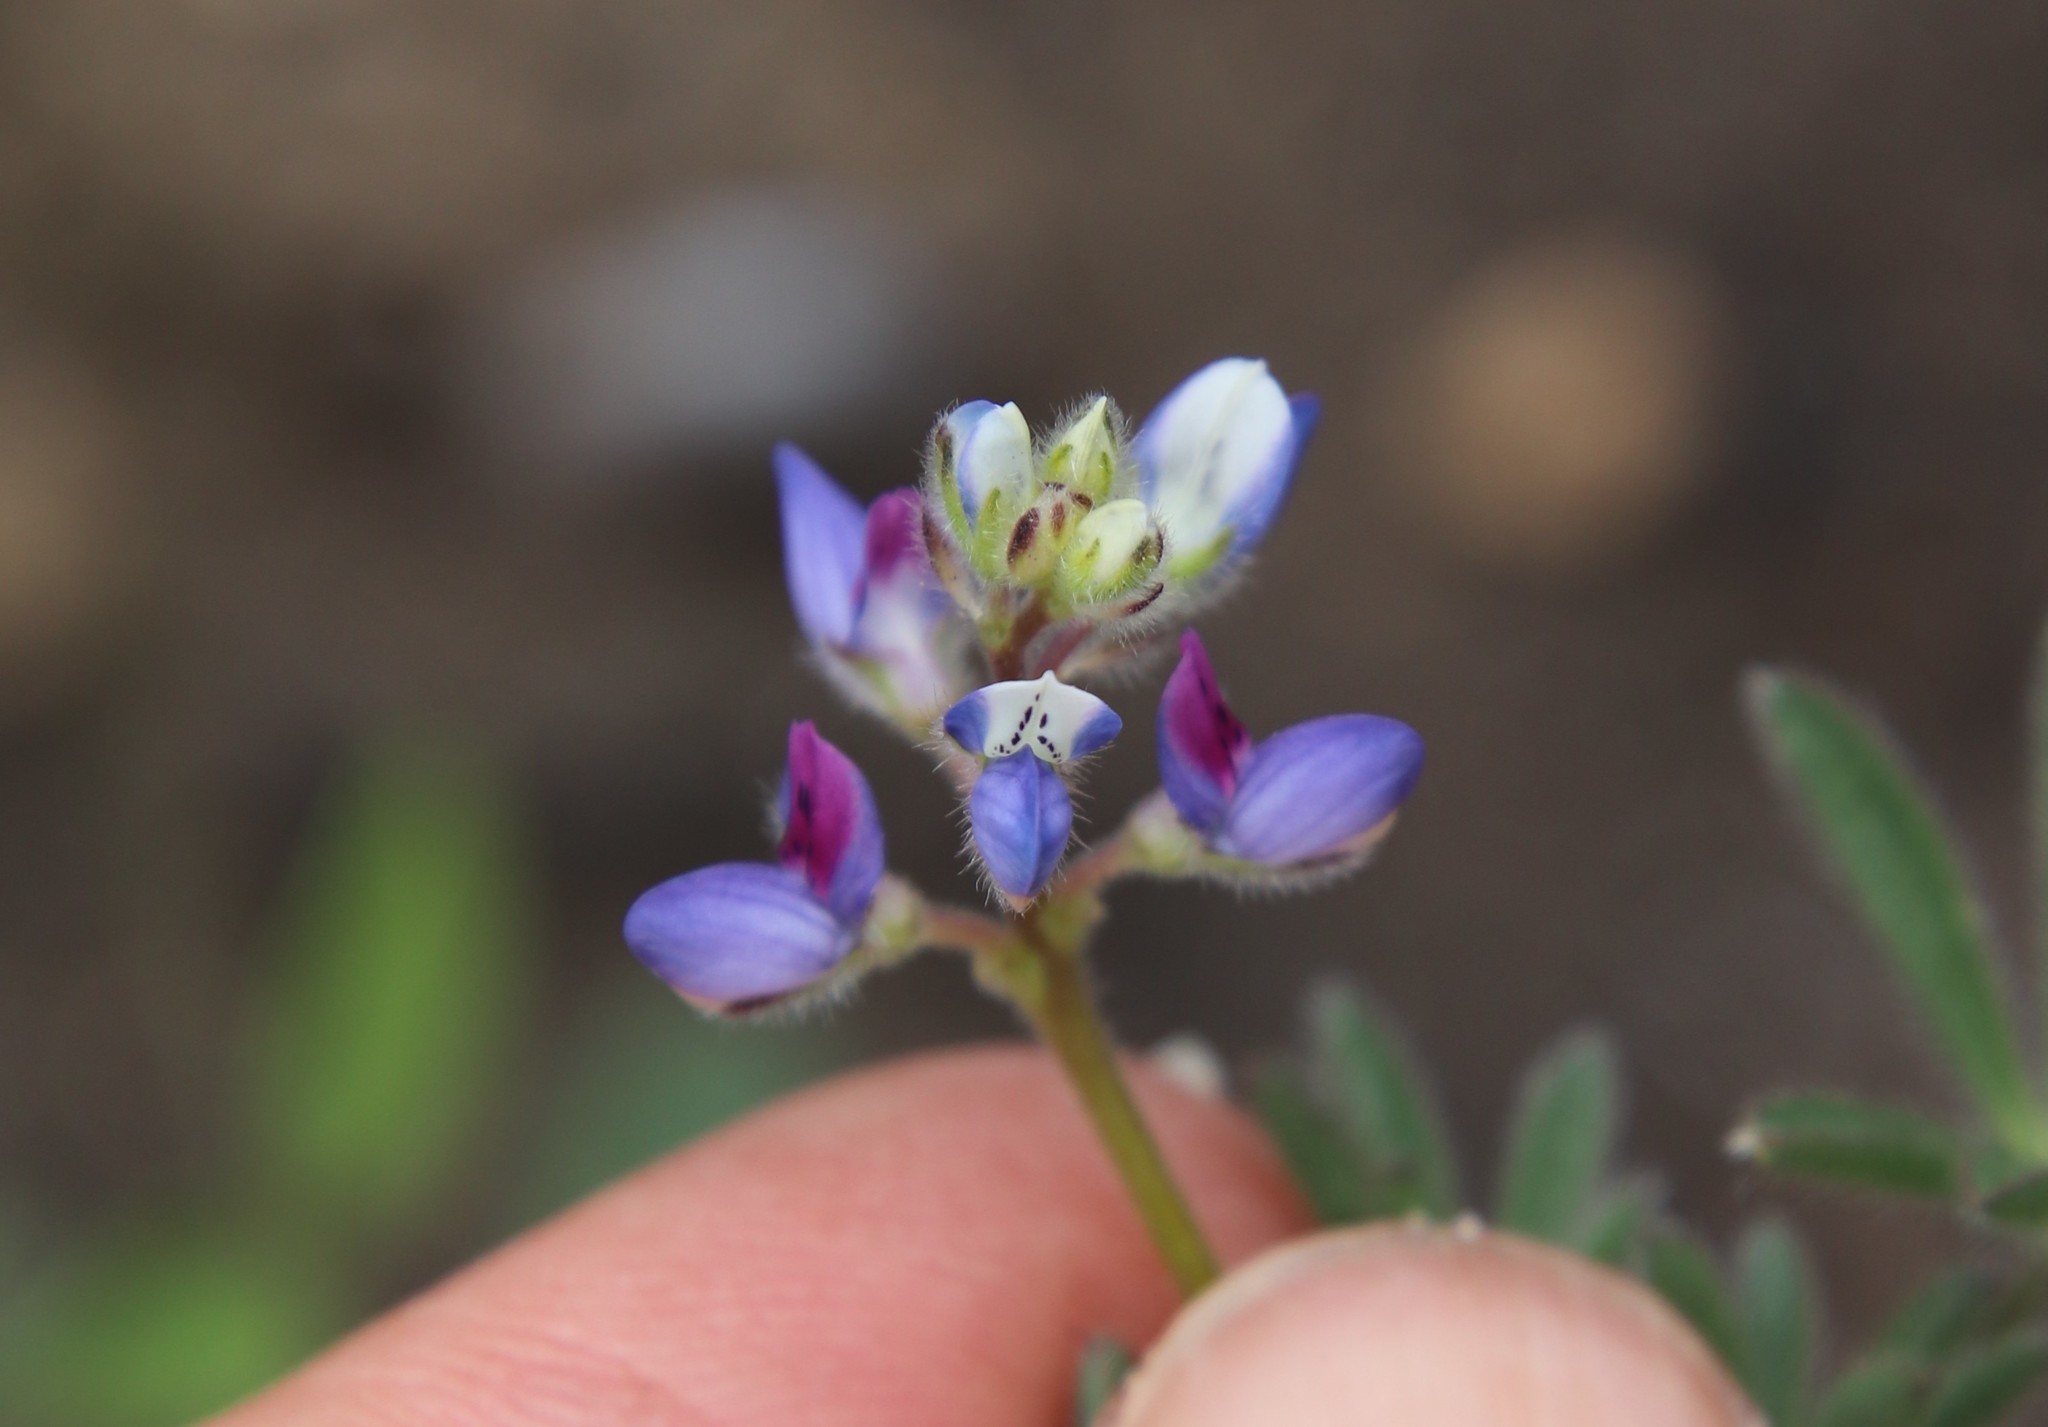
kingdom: Plantae
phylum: Tracheophyta
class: Magnoliopsida
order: Fabales
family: Fabaceae
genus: Lupinus
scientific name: Lupinus bicolor
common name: Miniature lupine
